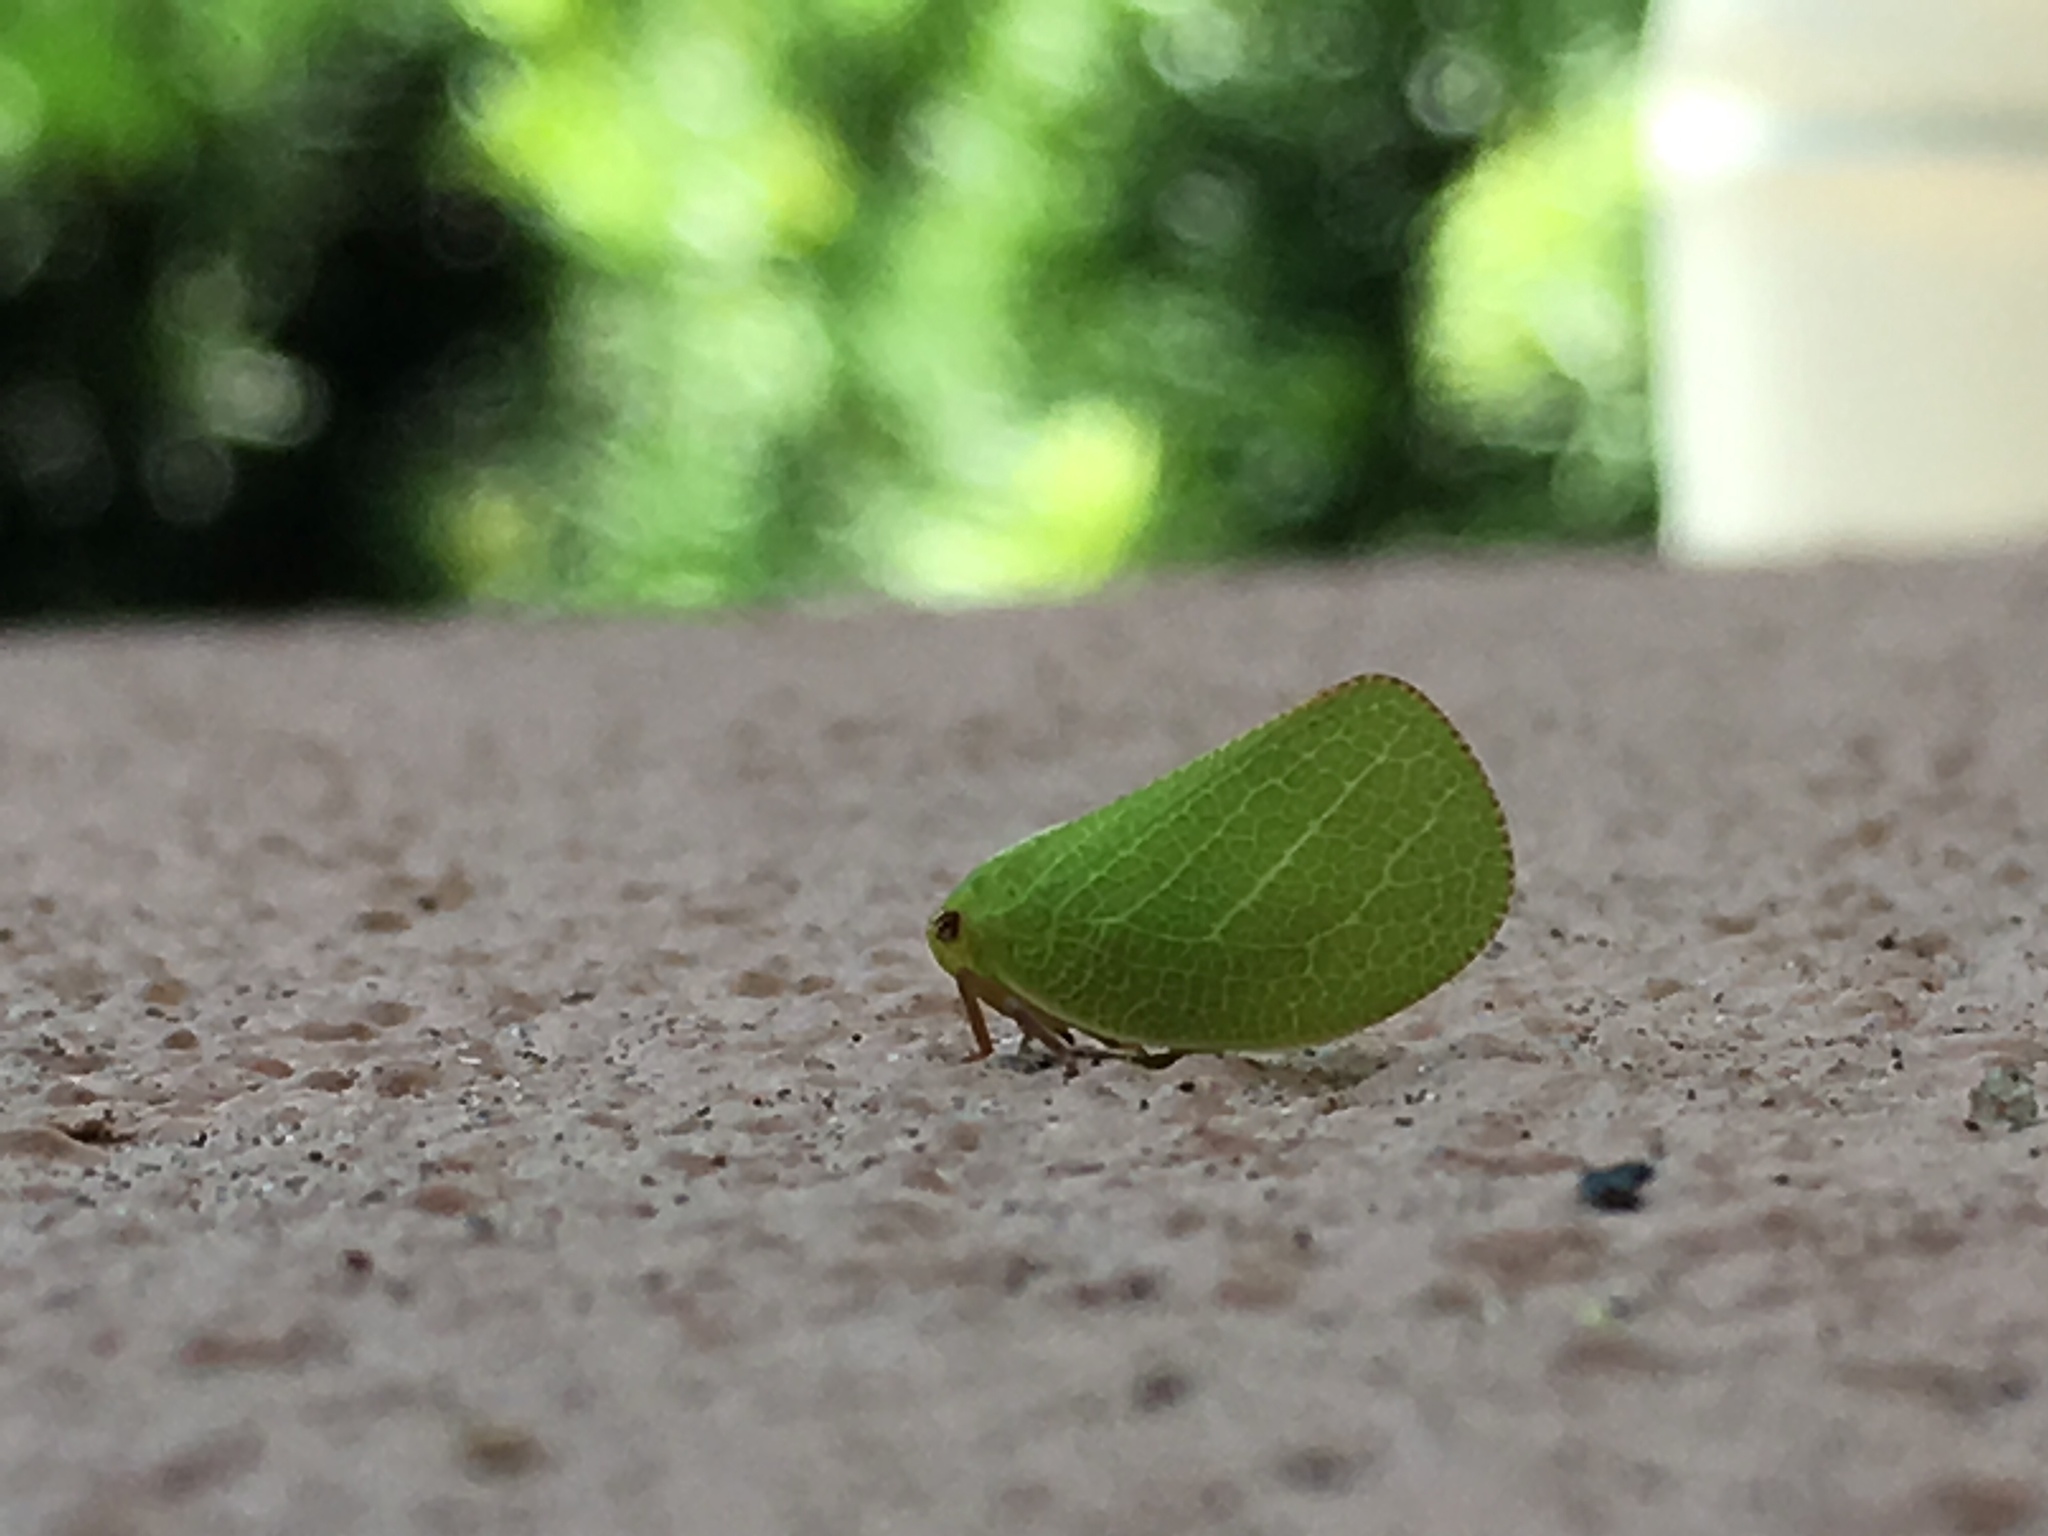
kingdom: Animalia
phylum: Arthropoda
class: Insecta
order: Hemiptera
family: Acanaloniidae
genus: Acanalonia
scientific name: Acanalonia servillei
